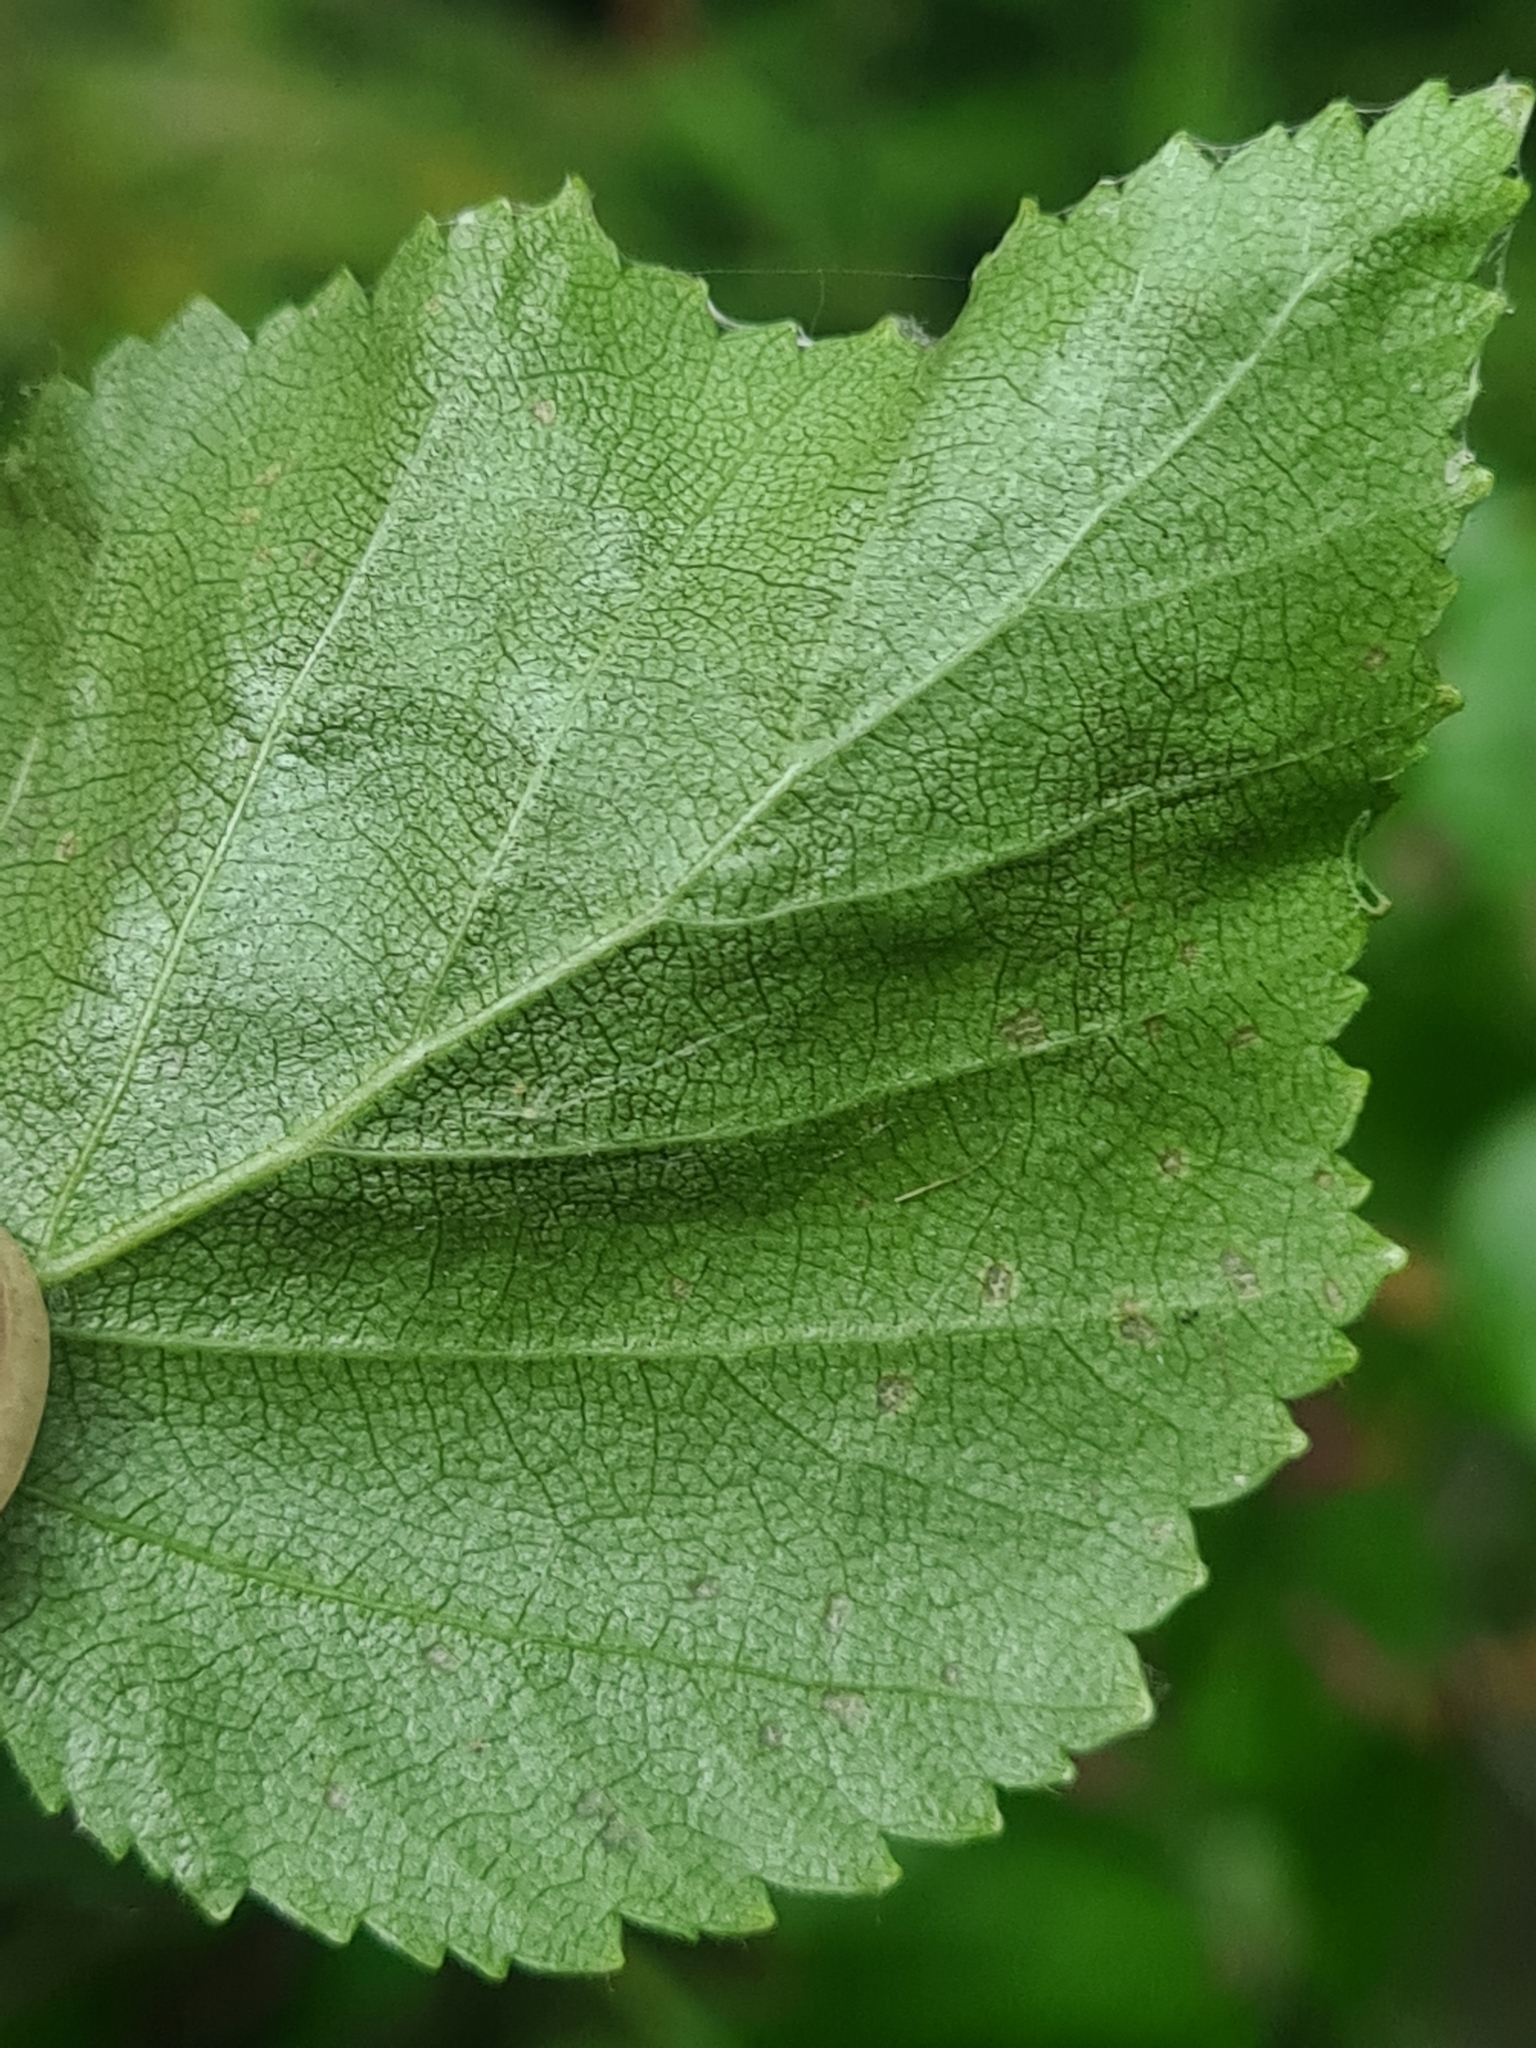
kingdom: Animalia
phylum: Arthropoda
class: Arachnida
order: Trombidiformes
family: Eriophyidae
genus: Acalitus
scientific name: Acalitus longisetosus
